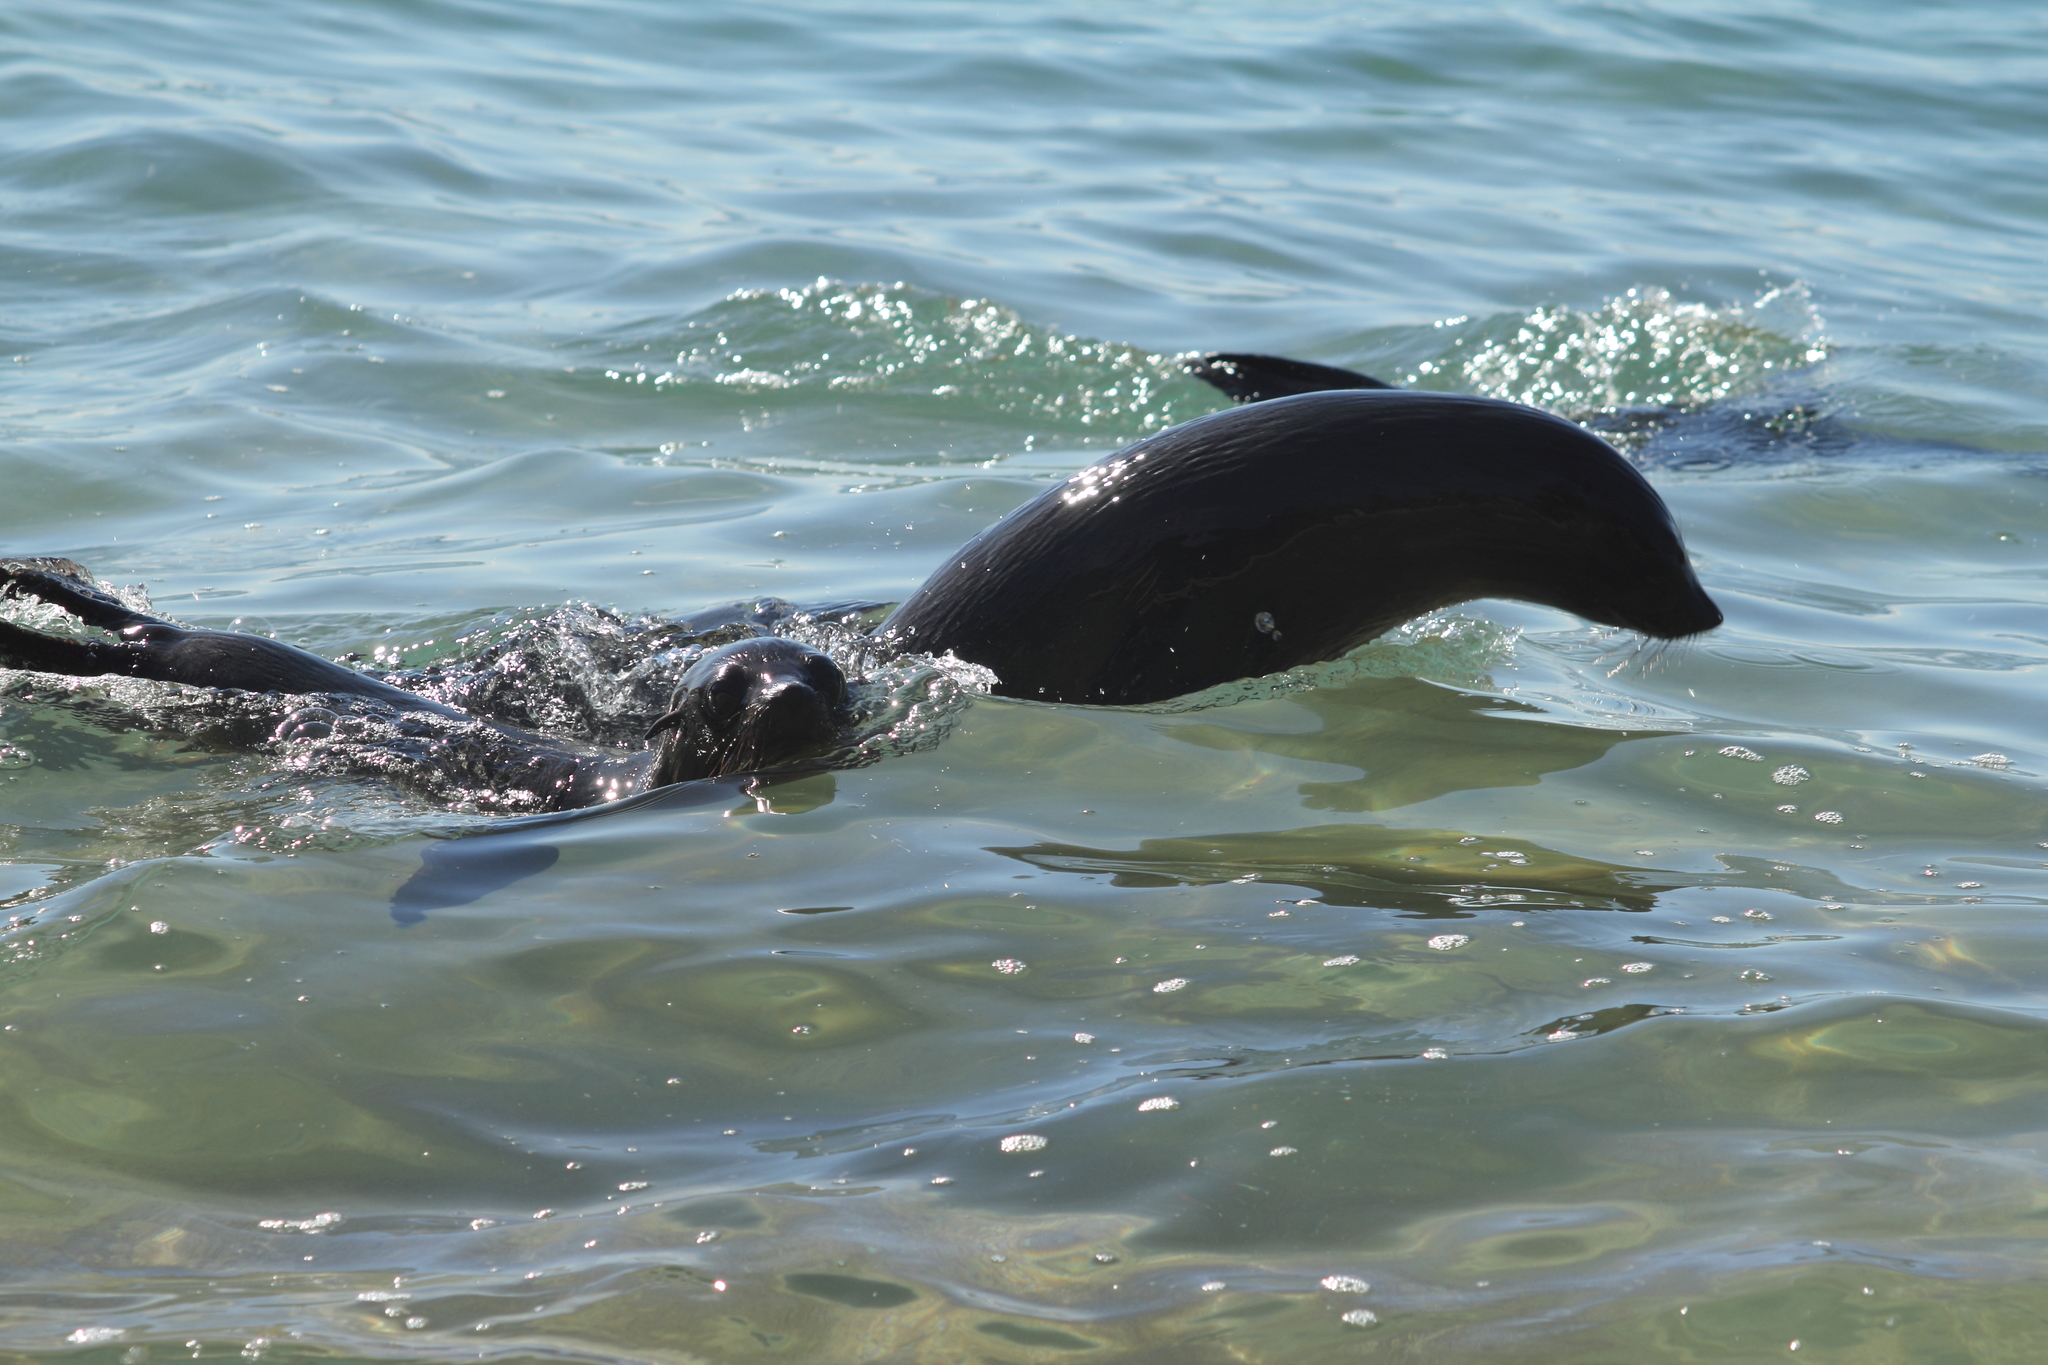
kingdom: Animalia
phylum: Chordata
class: Mammalia
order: Carnivora
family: Otariidae
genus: Arctocephalus
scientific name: Arctocephalus forsteri
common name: New zealand fur seal
